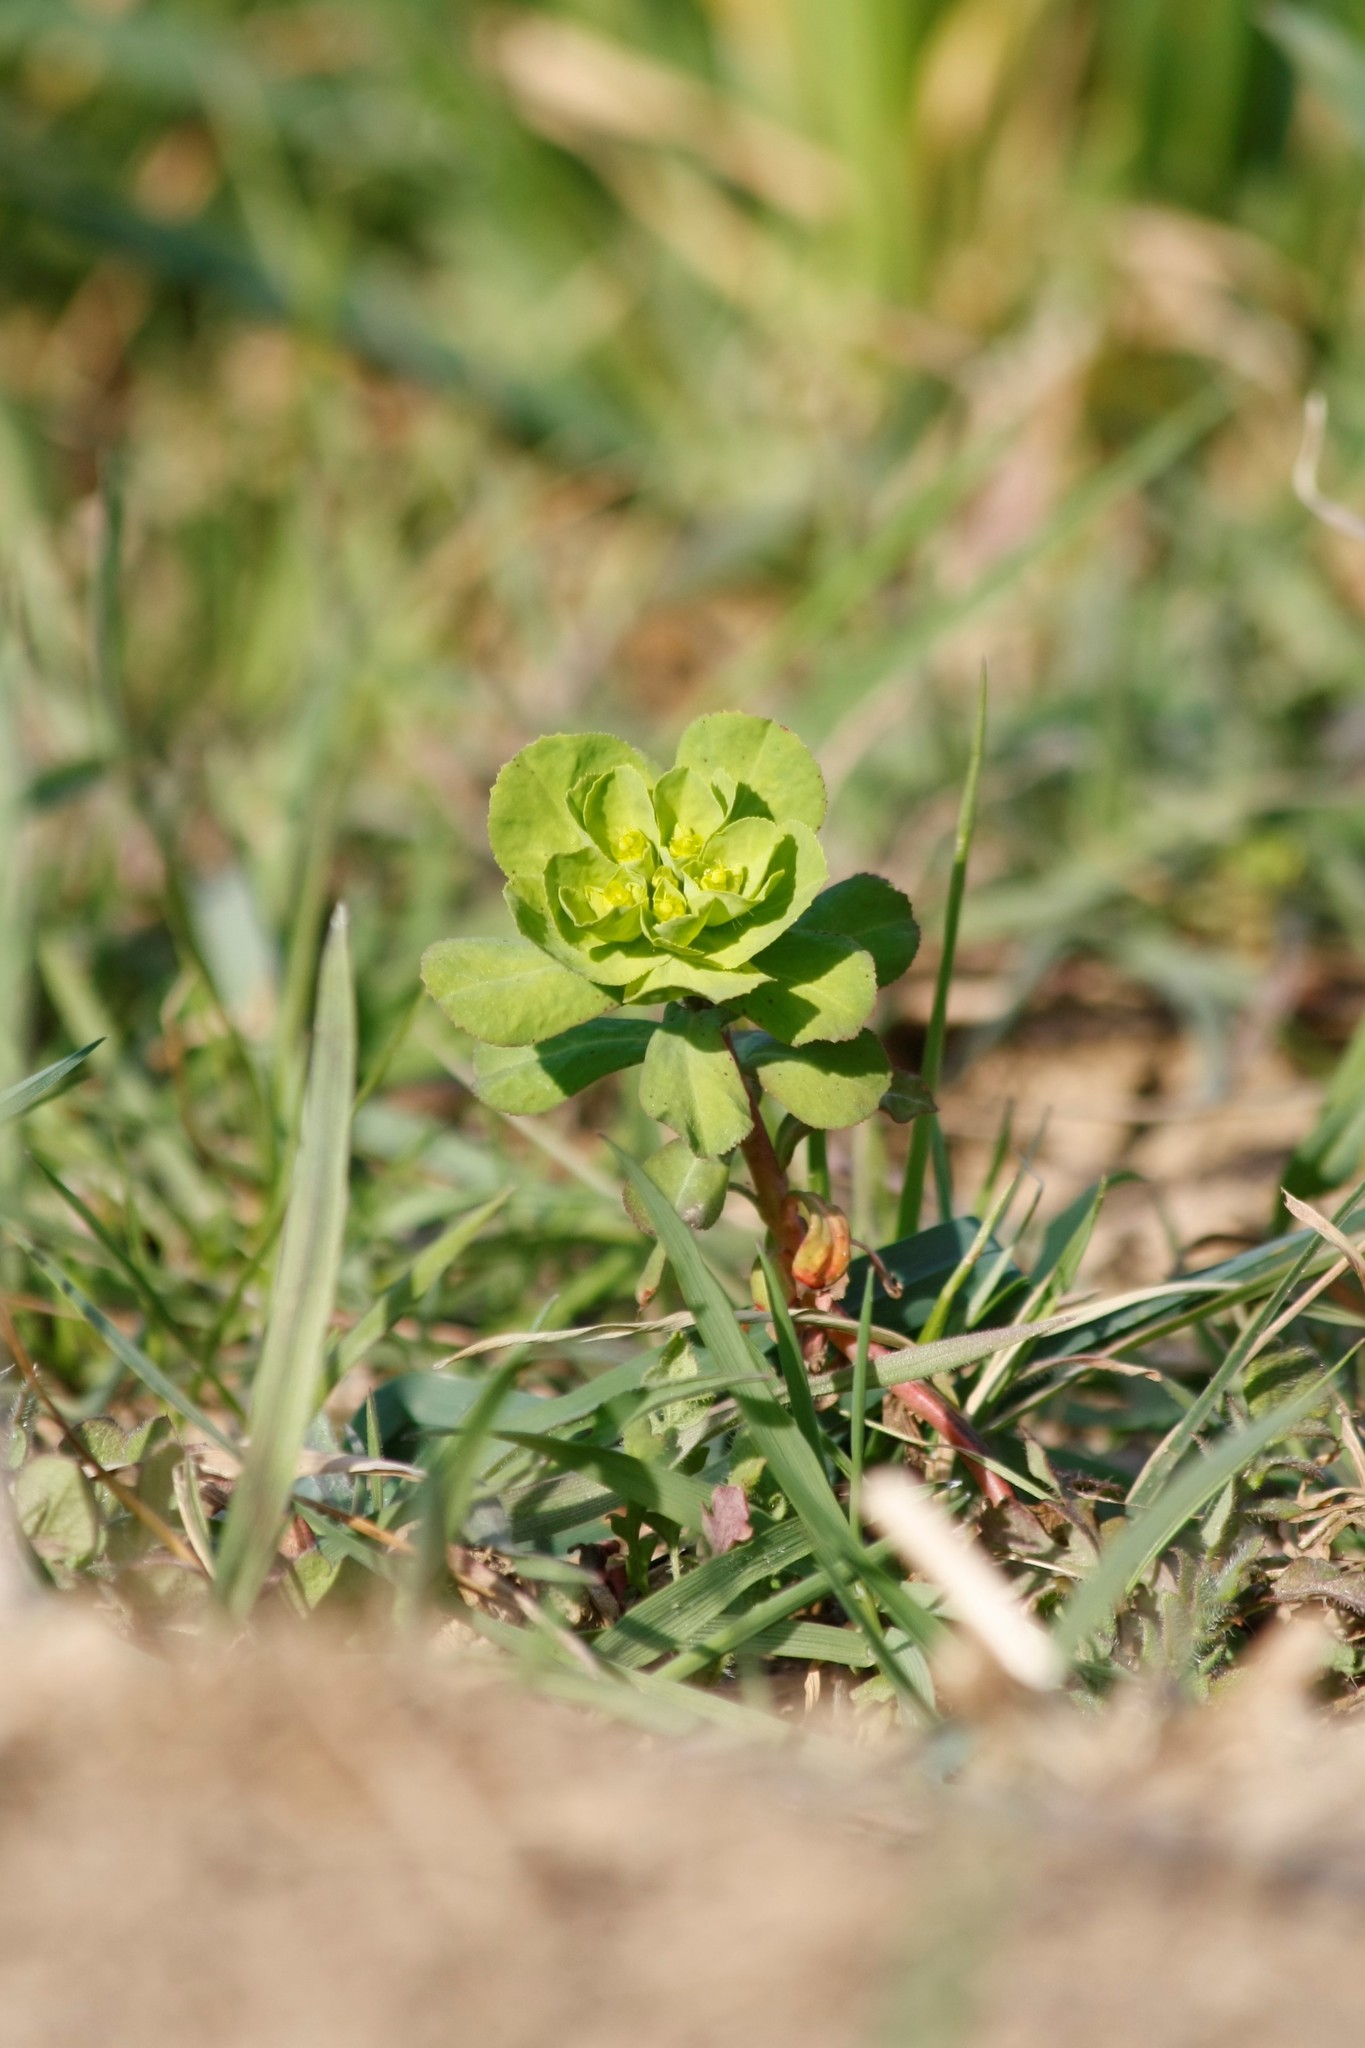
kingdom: Plantae
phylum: Tracheophyta
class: Magnoliopsida
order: Malpighiales
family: Euphorbiaceae
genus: Euphorbia
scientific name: Euphorbia helioscopia
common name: Sun spurge
